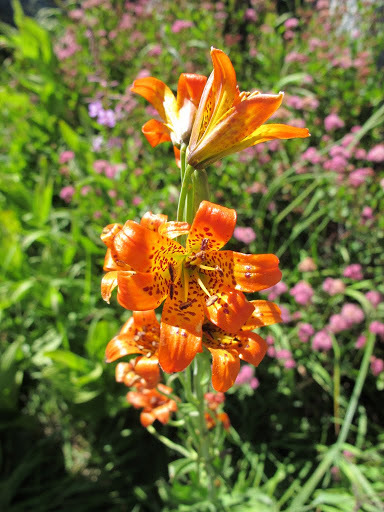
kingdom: Plantae
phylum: Tracheophyta
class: Liliopsida
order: Liliales
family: Liliaceae
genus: Lilium
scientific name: Lilium parvum
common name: Alpine lily
